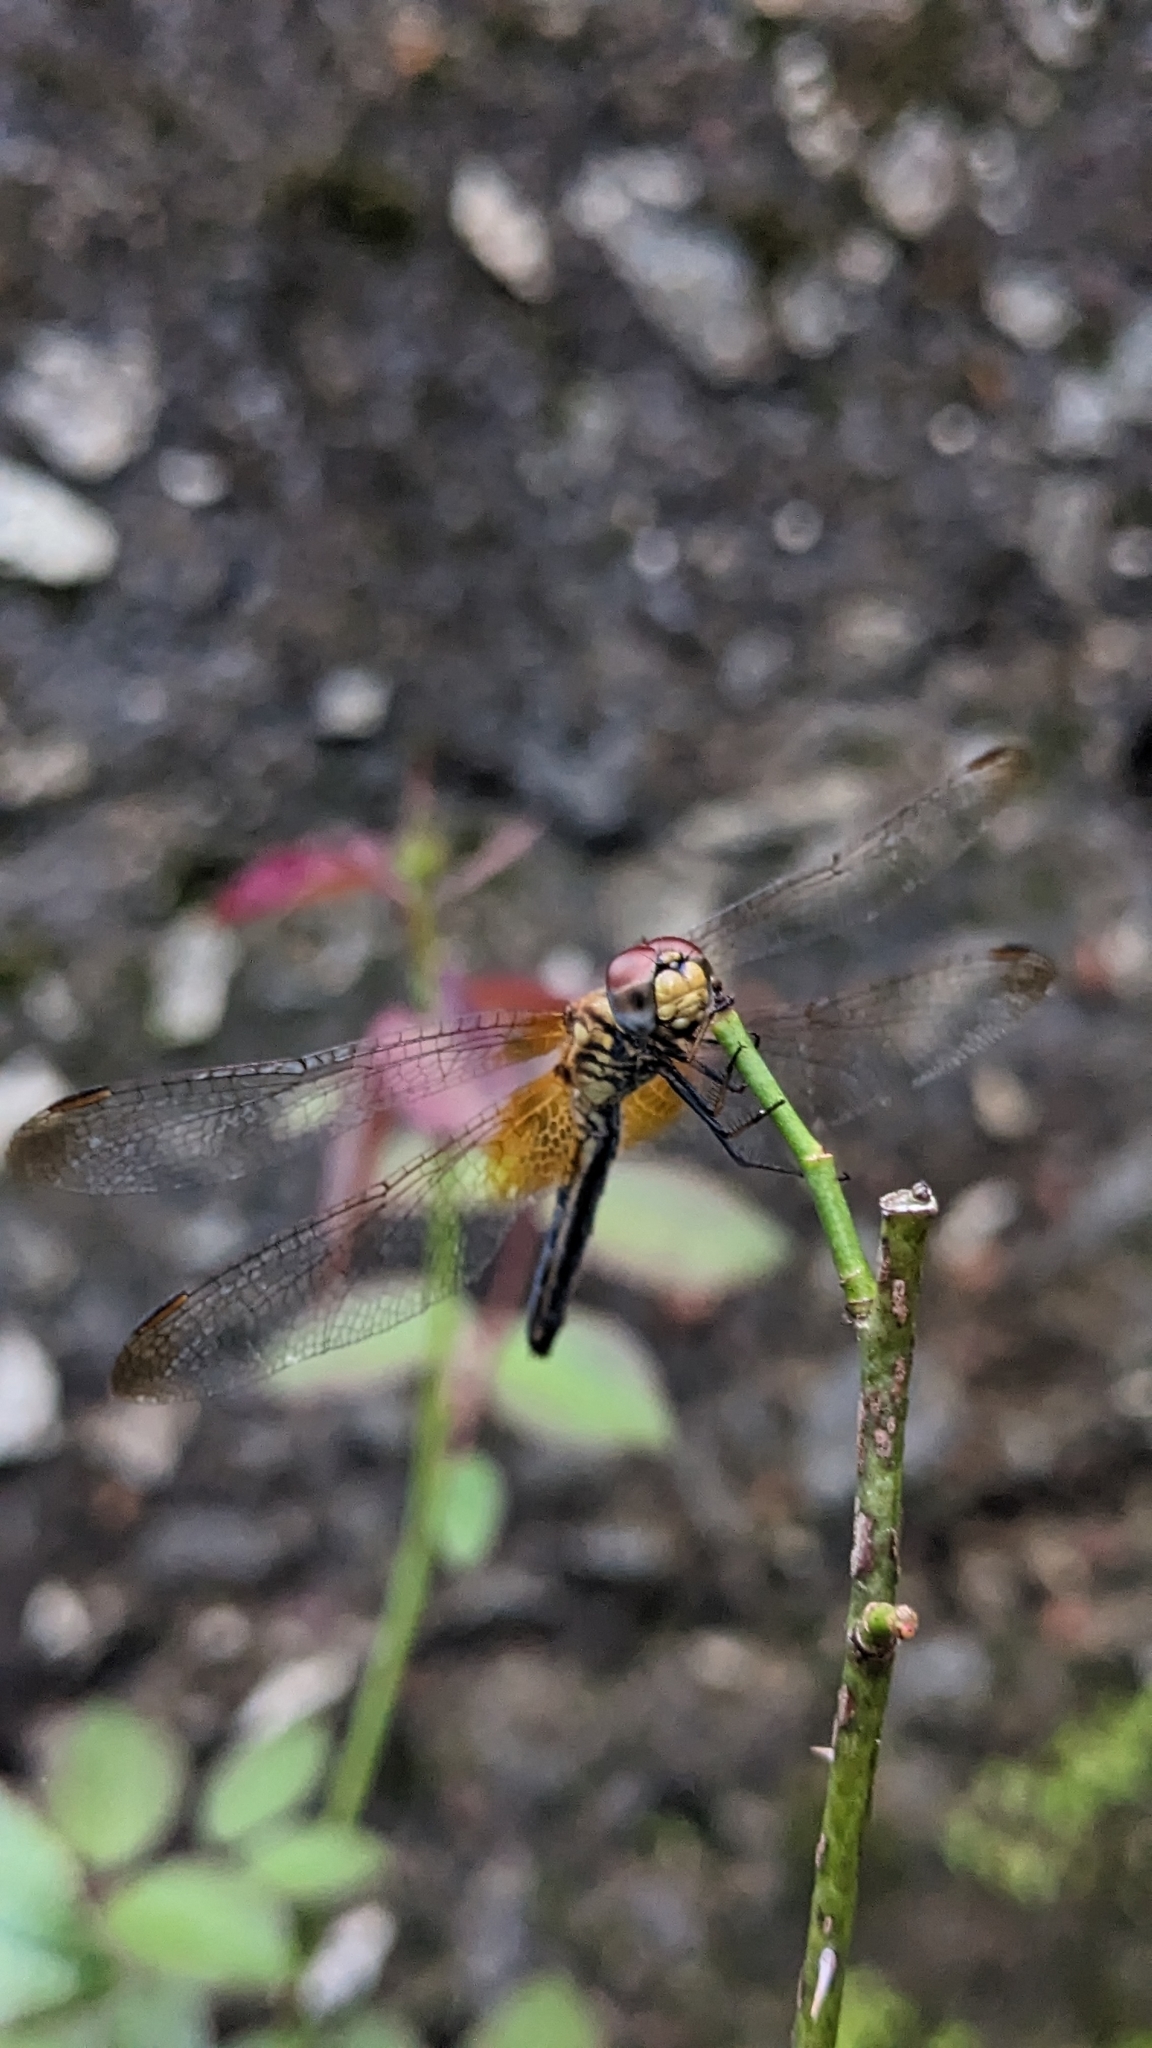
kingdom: Animalia
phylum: Arthropoda
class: Insecta
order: Odonata
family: Libellulidae
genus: Trithemis
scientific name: Trithemis aurora
